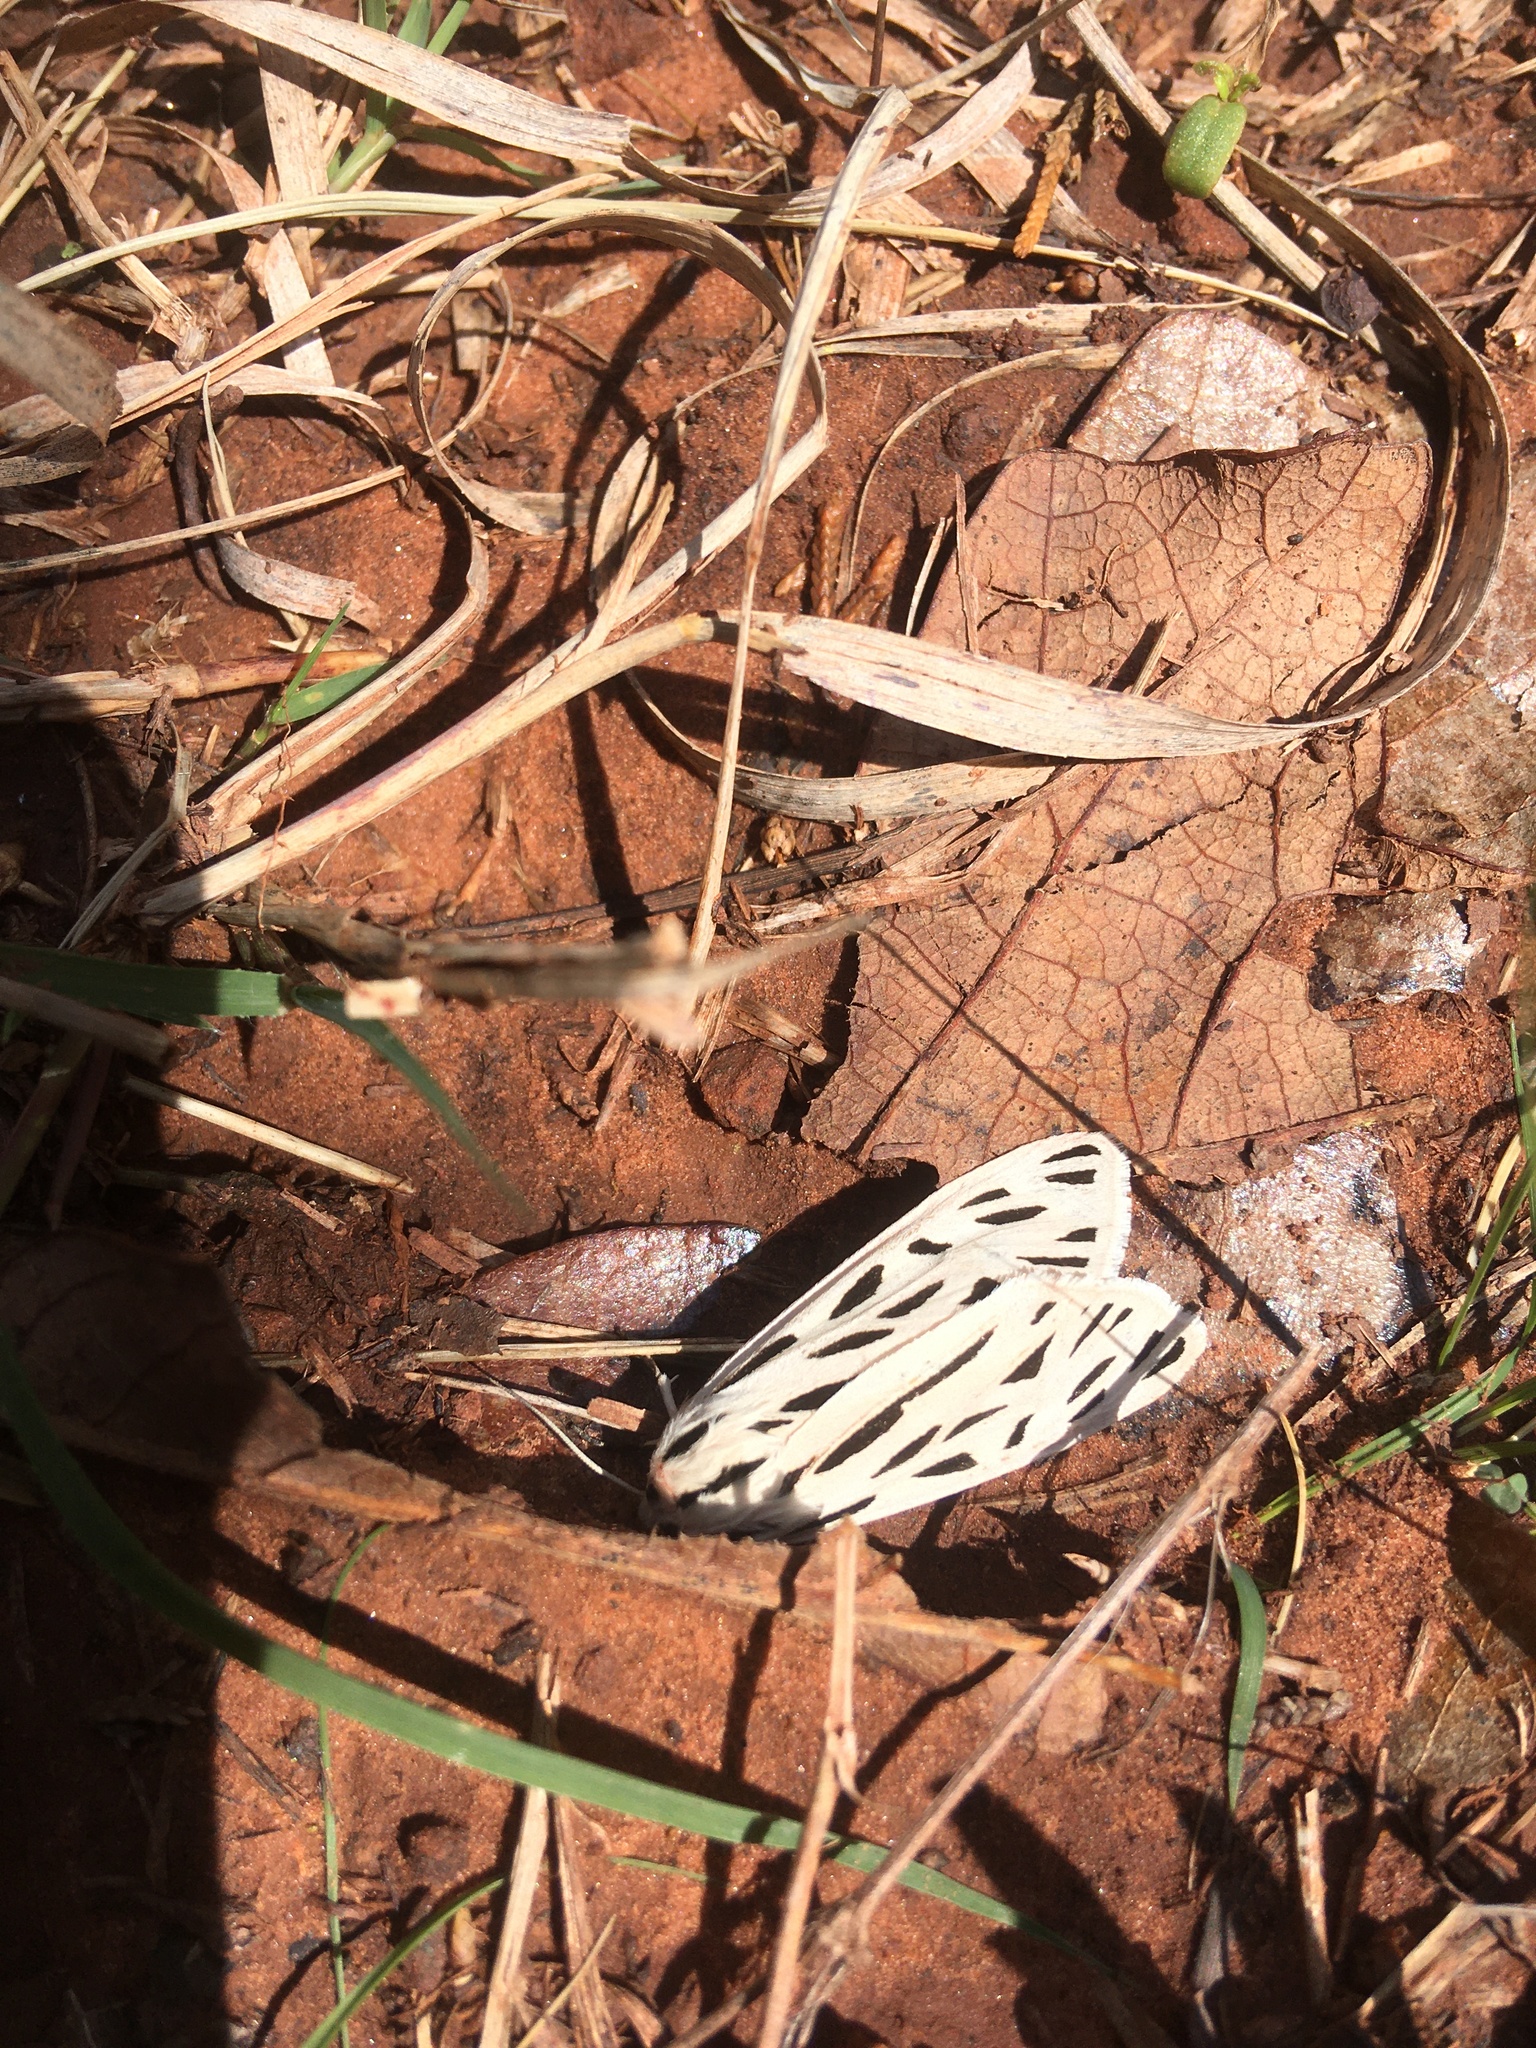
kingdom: Animalia
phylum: Arthropoda
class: Insecta
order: Lepidoptera
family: Erebidae
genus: Apantesis
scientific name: Apantesis arge
